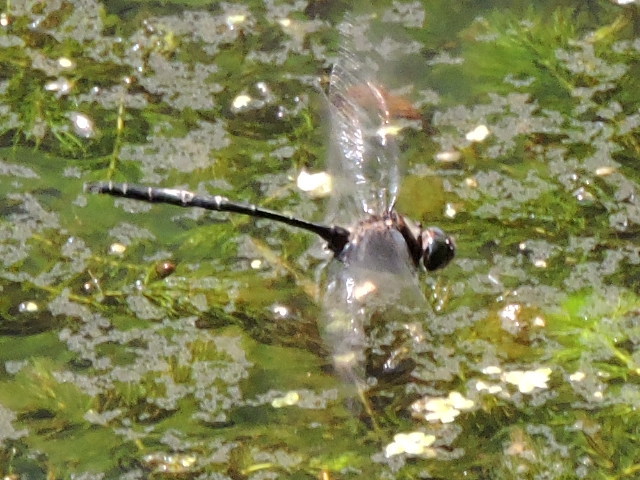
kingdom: Animalia
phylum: Arthropoda
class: Insecta
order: Odonata
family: Corduliidae
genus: Somatochlora
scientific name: Somatochlora linearis
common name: Mocha emerald
